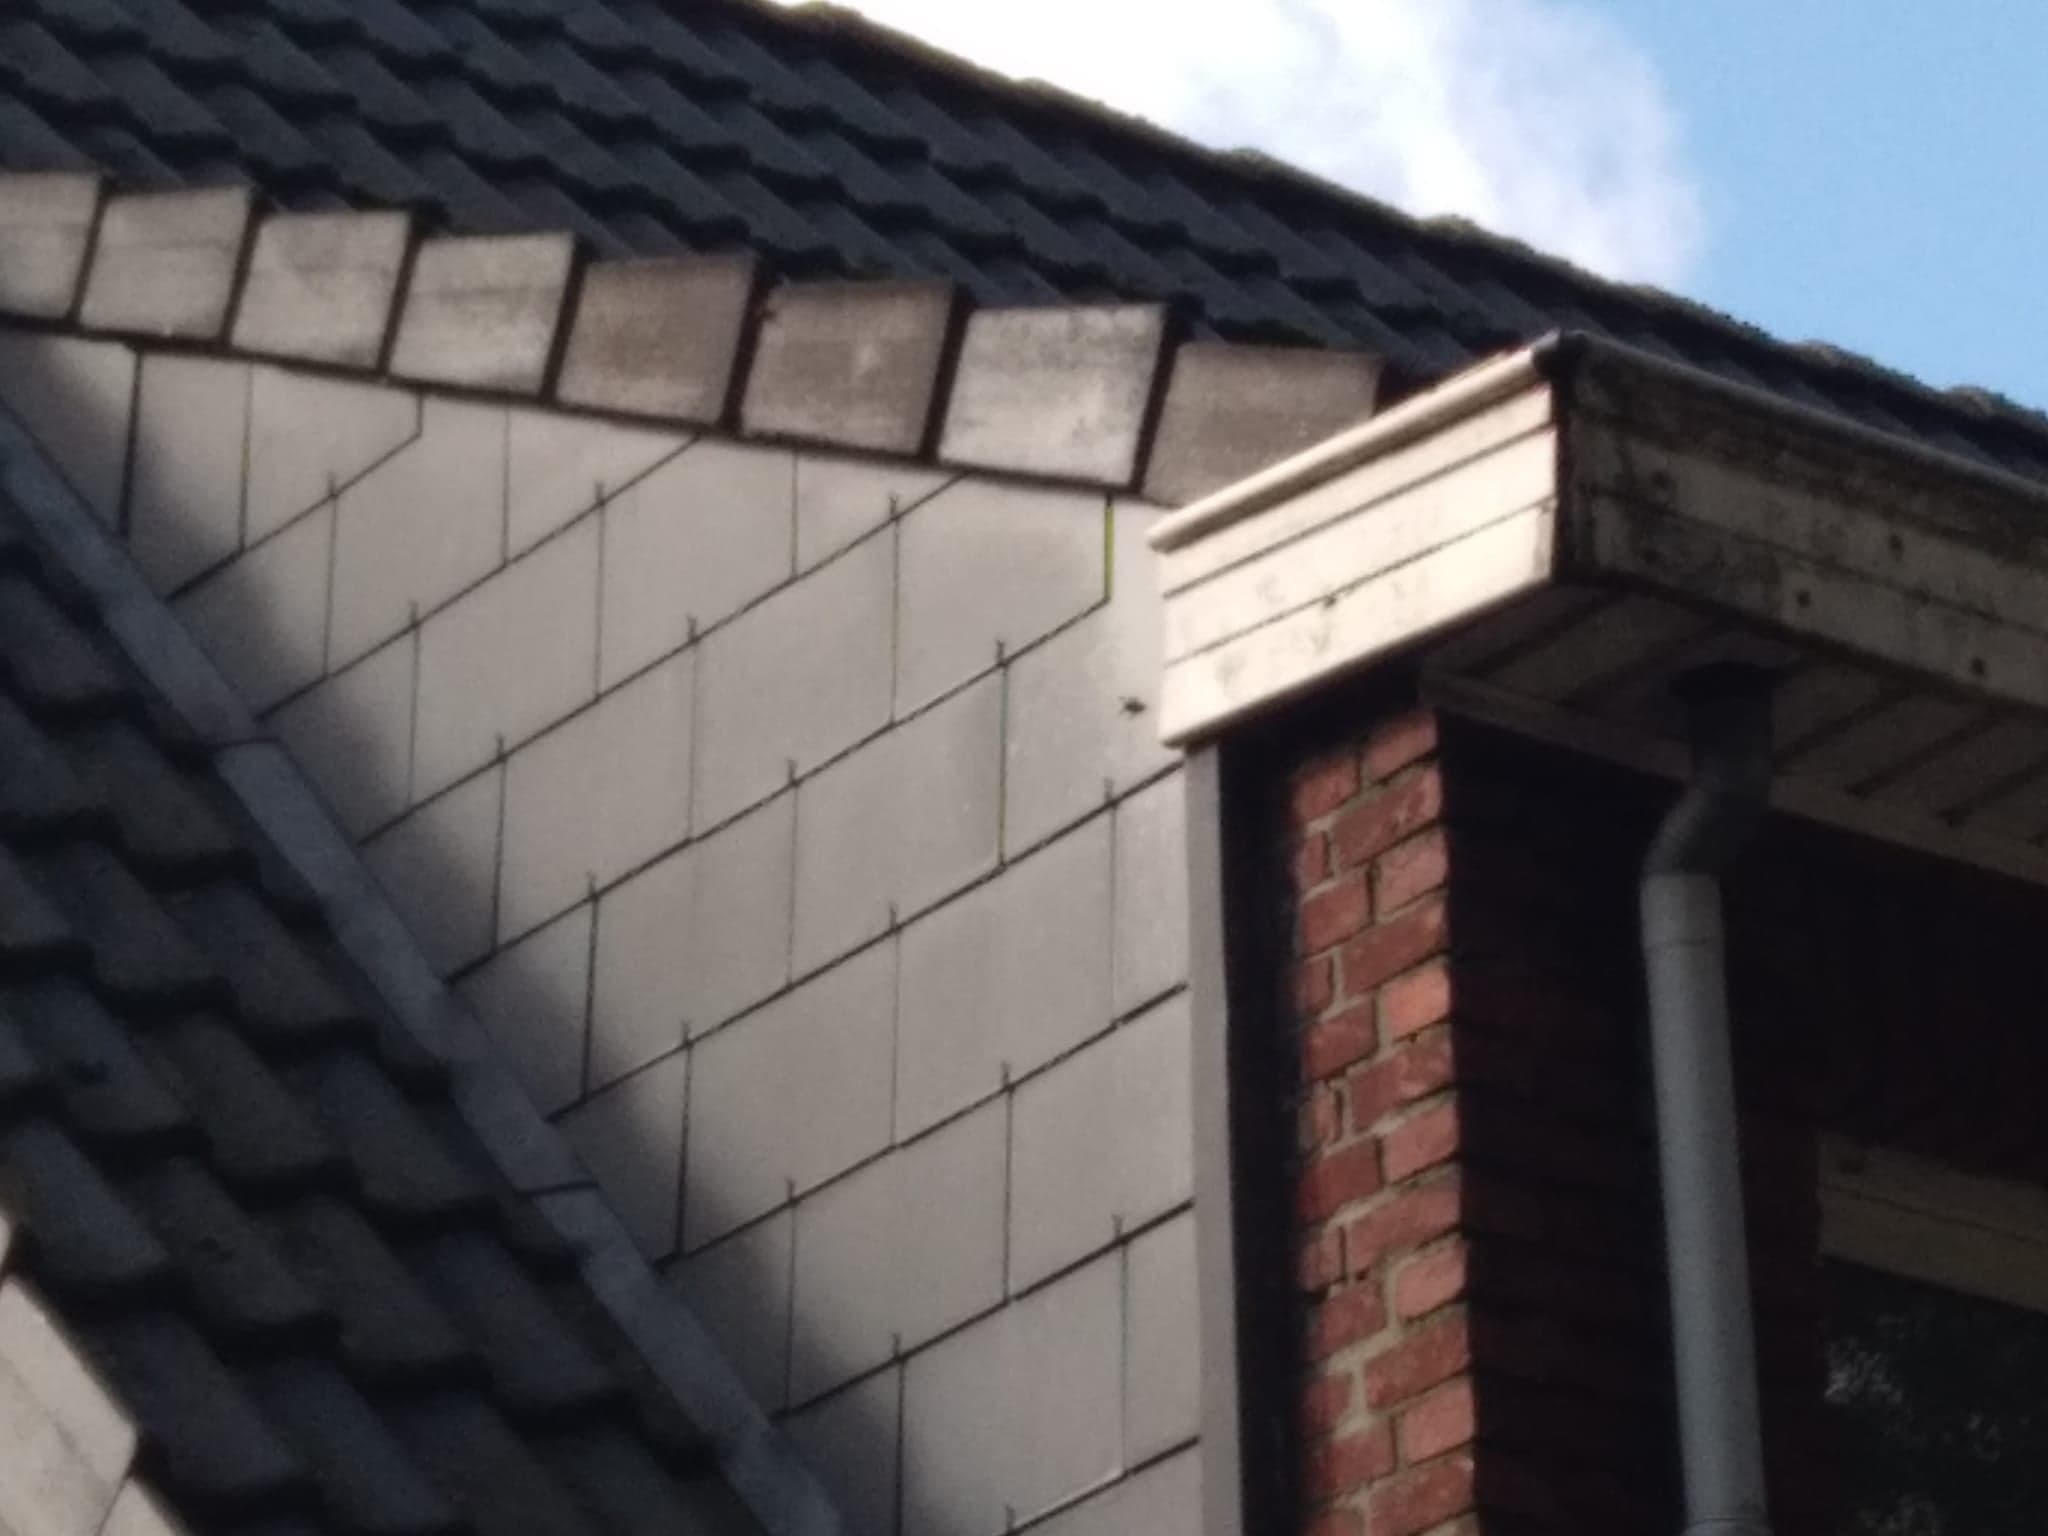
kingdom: Animalia
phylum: Arthropoda
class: Insecta
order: Hymenoptera
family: Vespidae
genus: Vespa
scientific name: Vespa velutina
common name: Asian hornet
